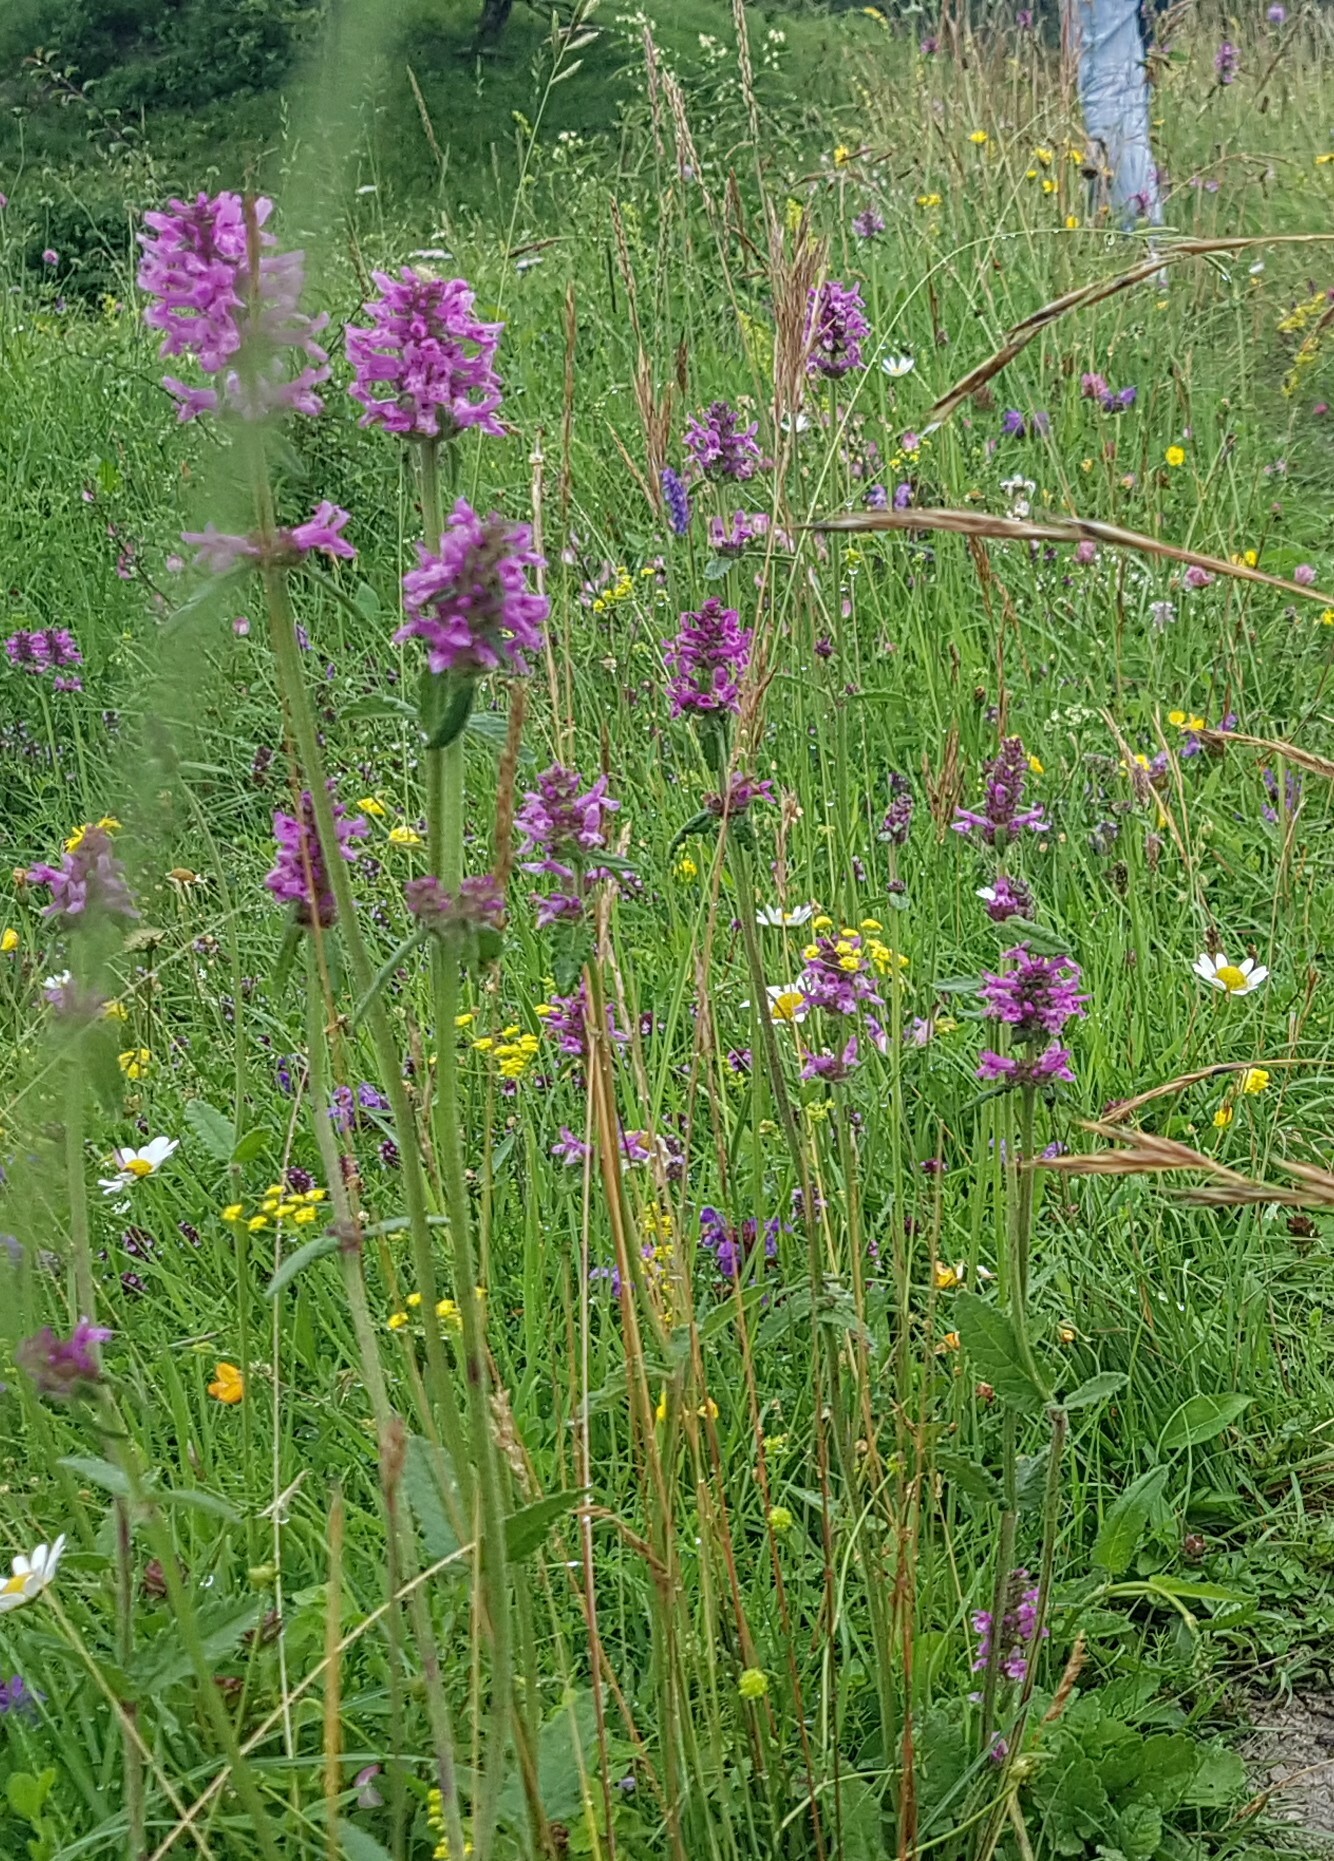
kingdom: Plantae
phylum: Tracheophyta
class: Magnoliopsida
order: Lamiales
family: Lamiaceae
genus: Betonica
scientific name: Betonica officinalis
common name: Bishop's-wort
